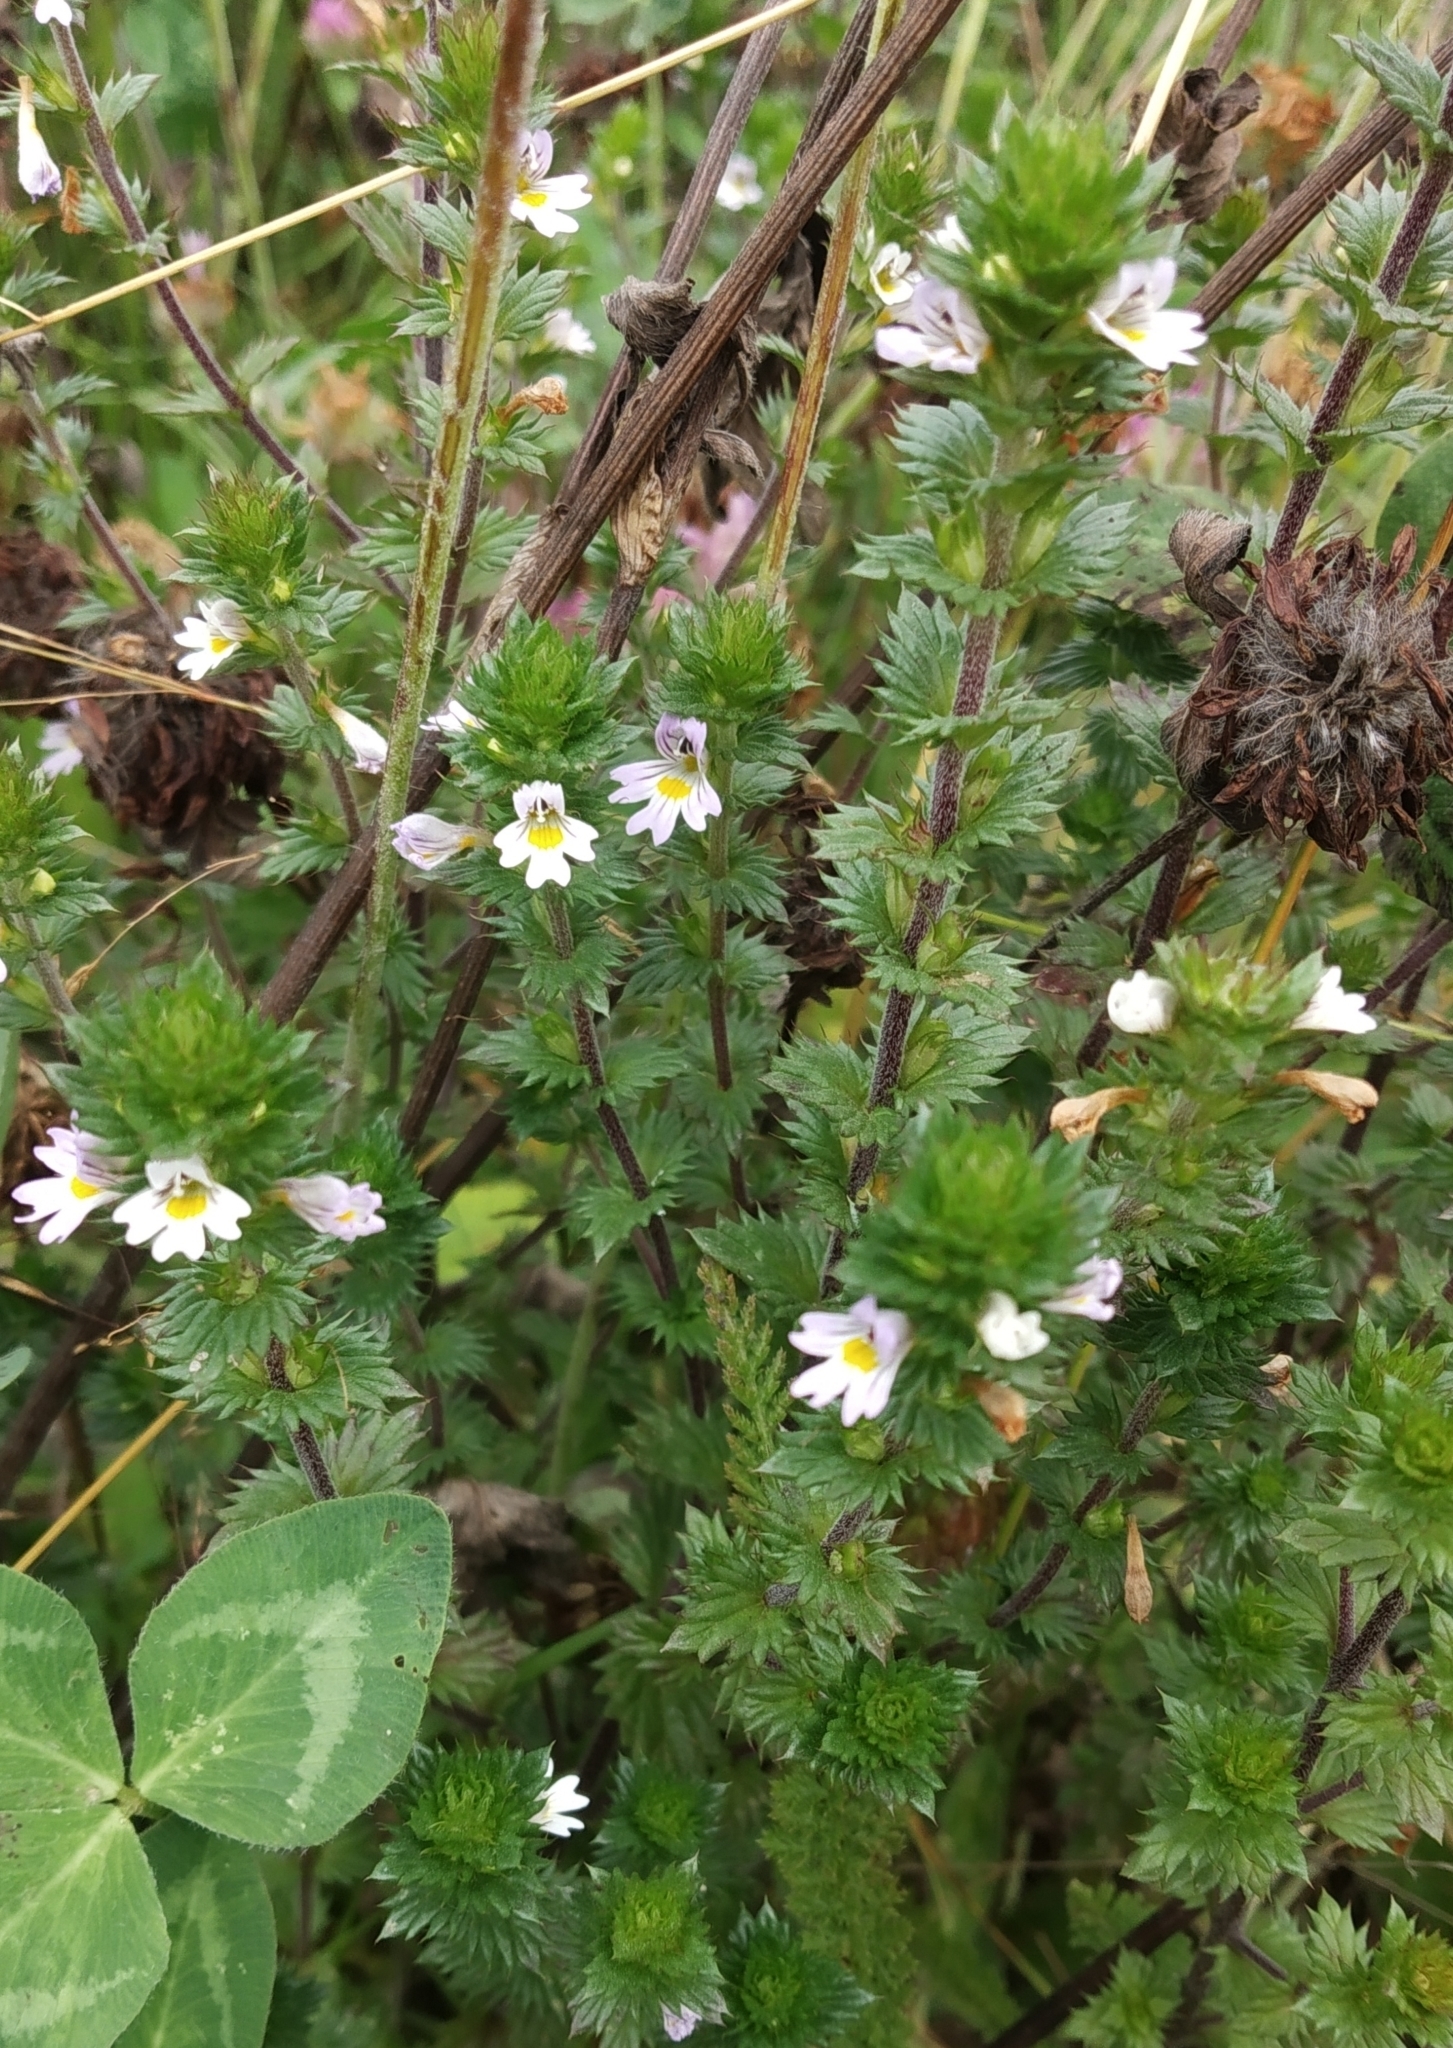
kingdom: Plantae
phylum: Tracheophyta
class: Magnoliopsida
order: Lamiales
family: Orobanchaceae
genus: Euphrasia
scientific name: Euphrasia stricta
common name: Drug eyebright
